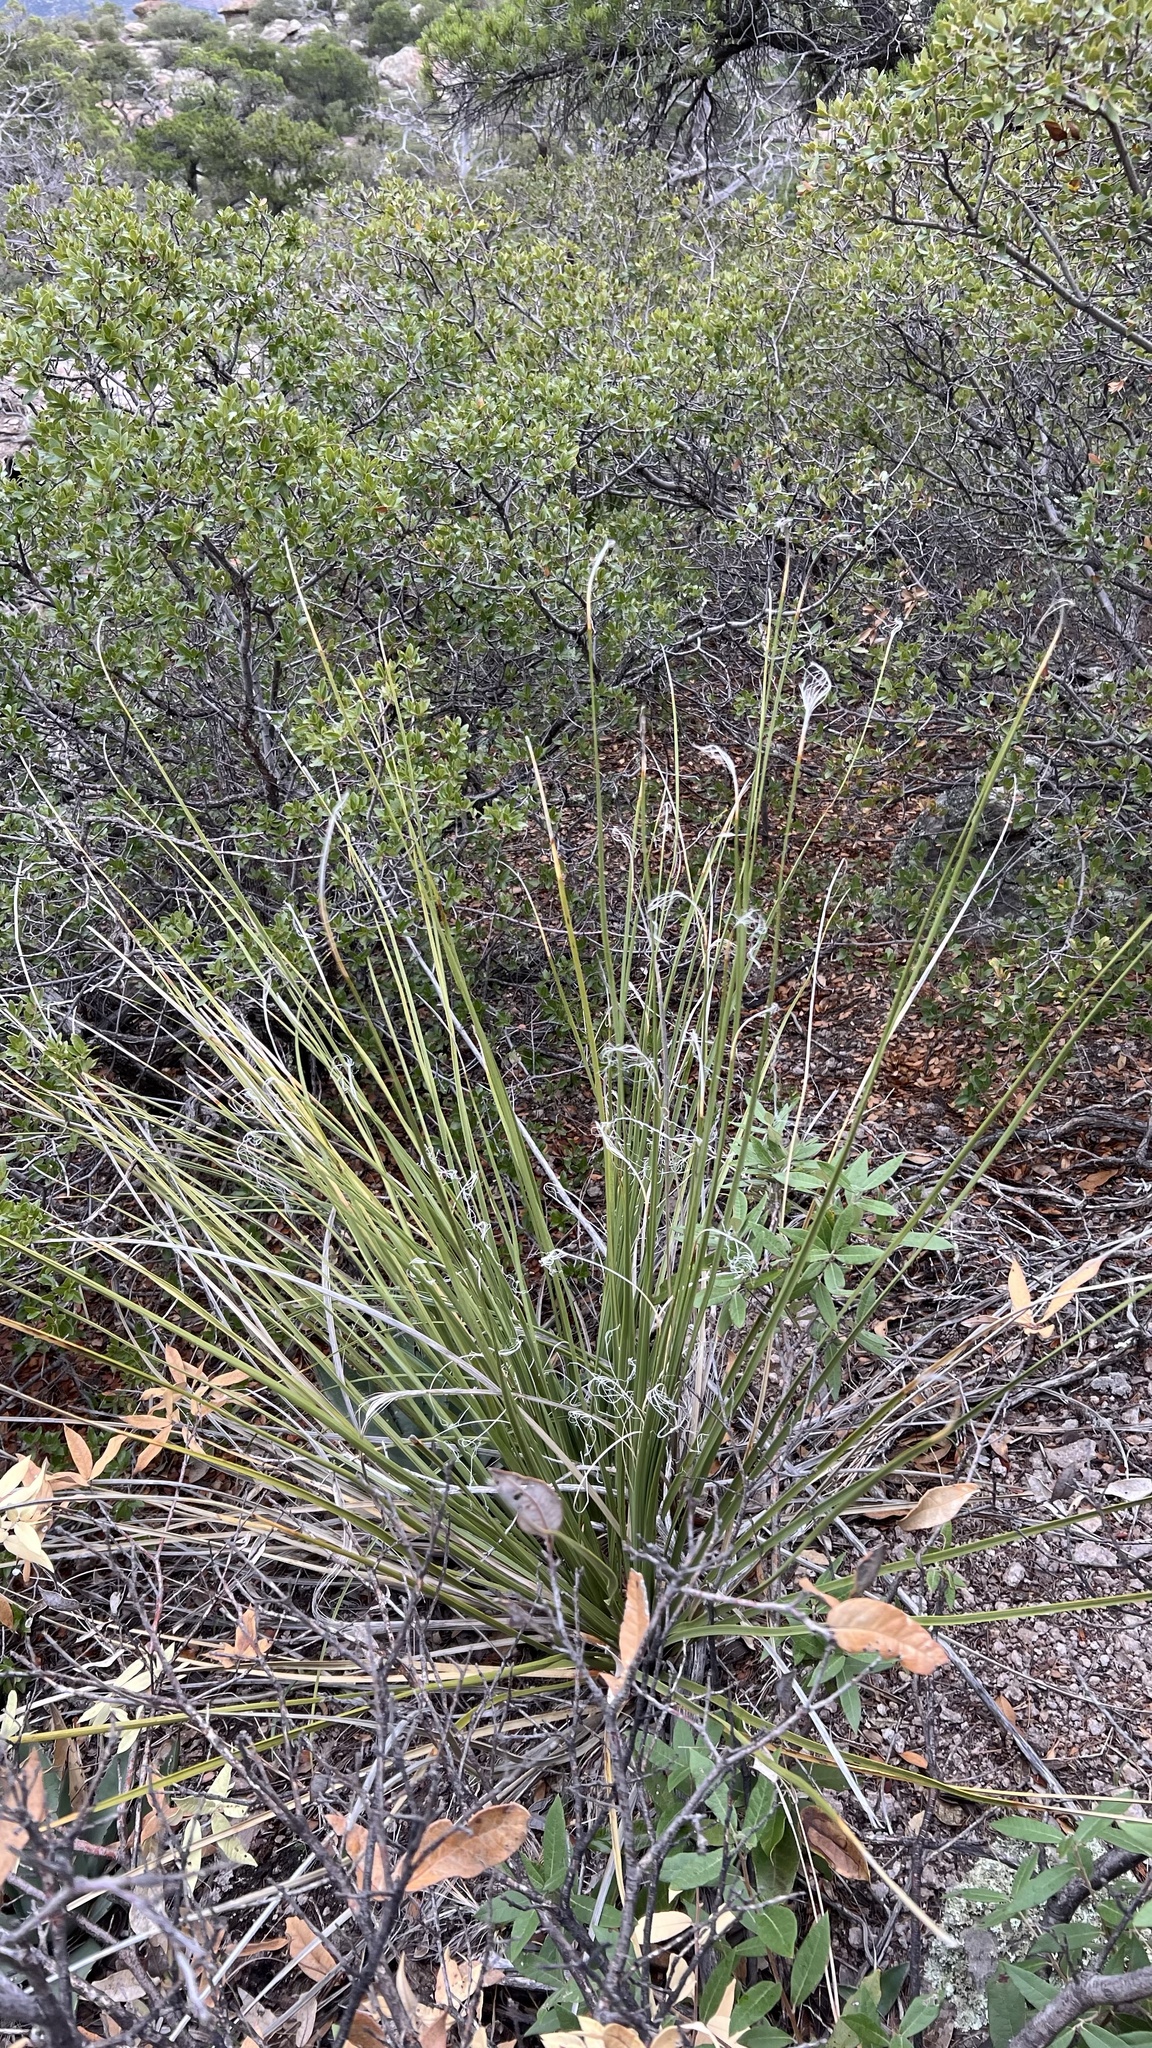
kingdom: Plantae
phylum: Tracheophyta
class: Liliopsida
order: Asparagales
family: Asparagaceae
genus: Nolina
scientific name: Nolina microcarpa
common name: Bear-grass
